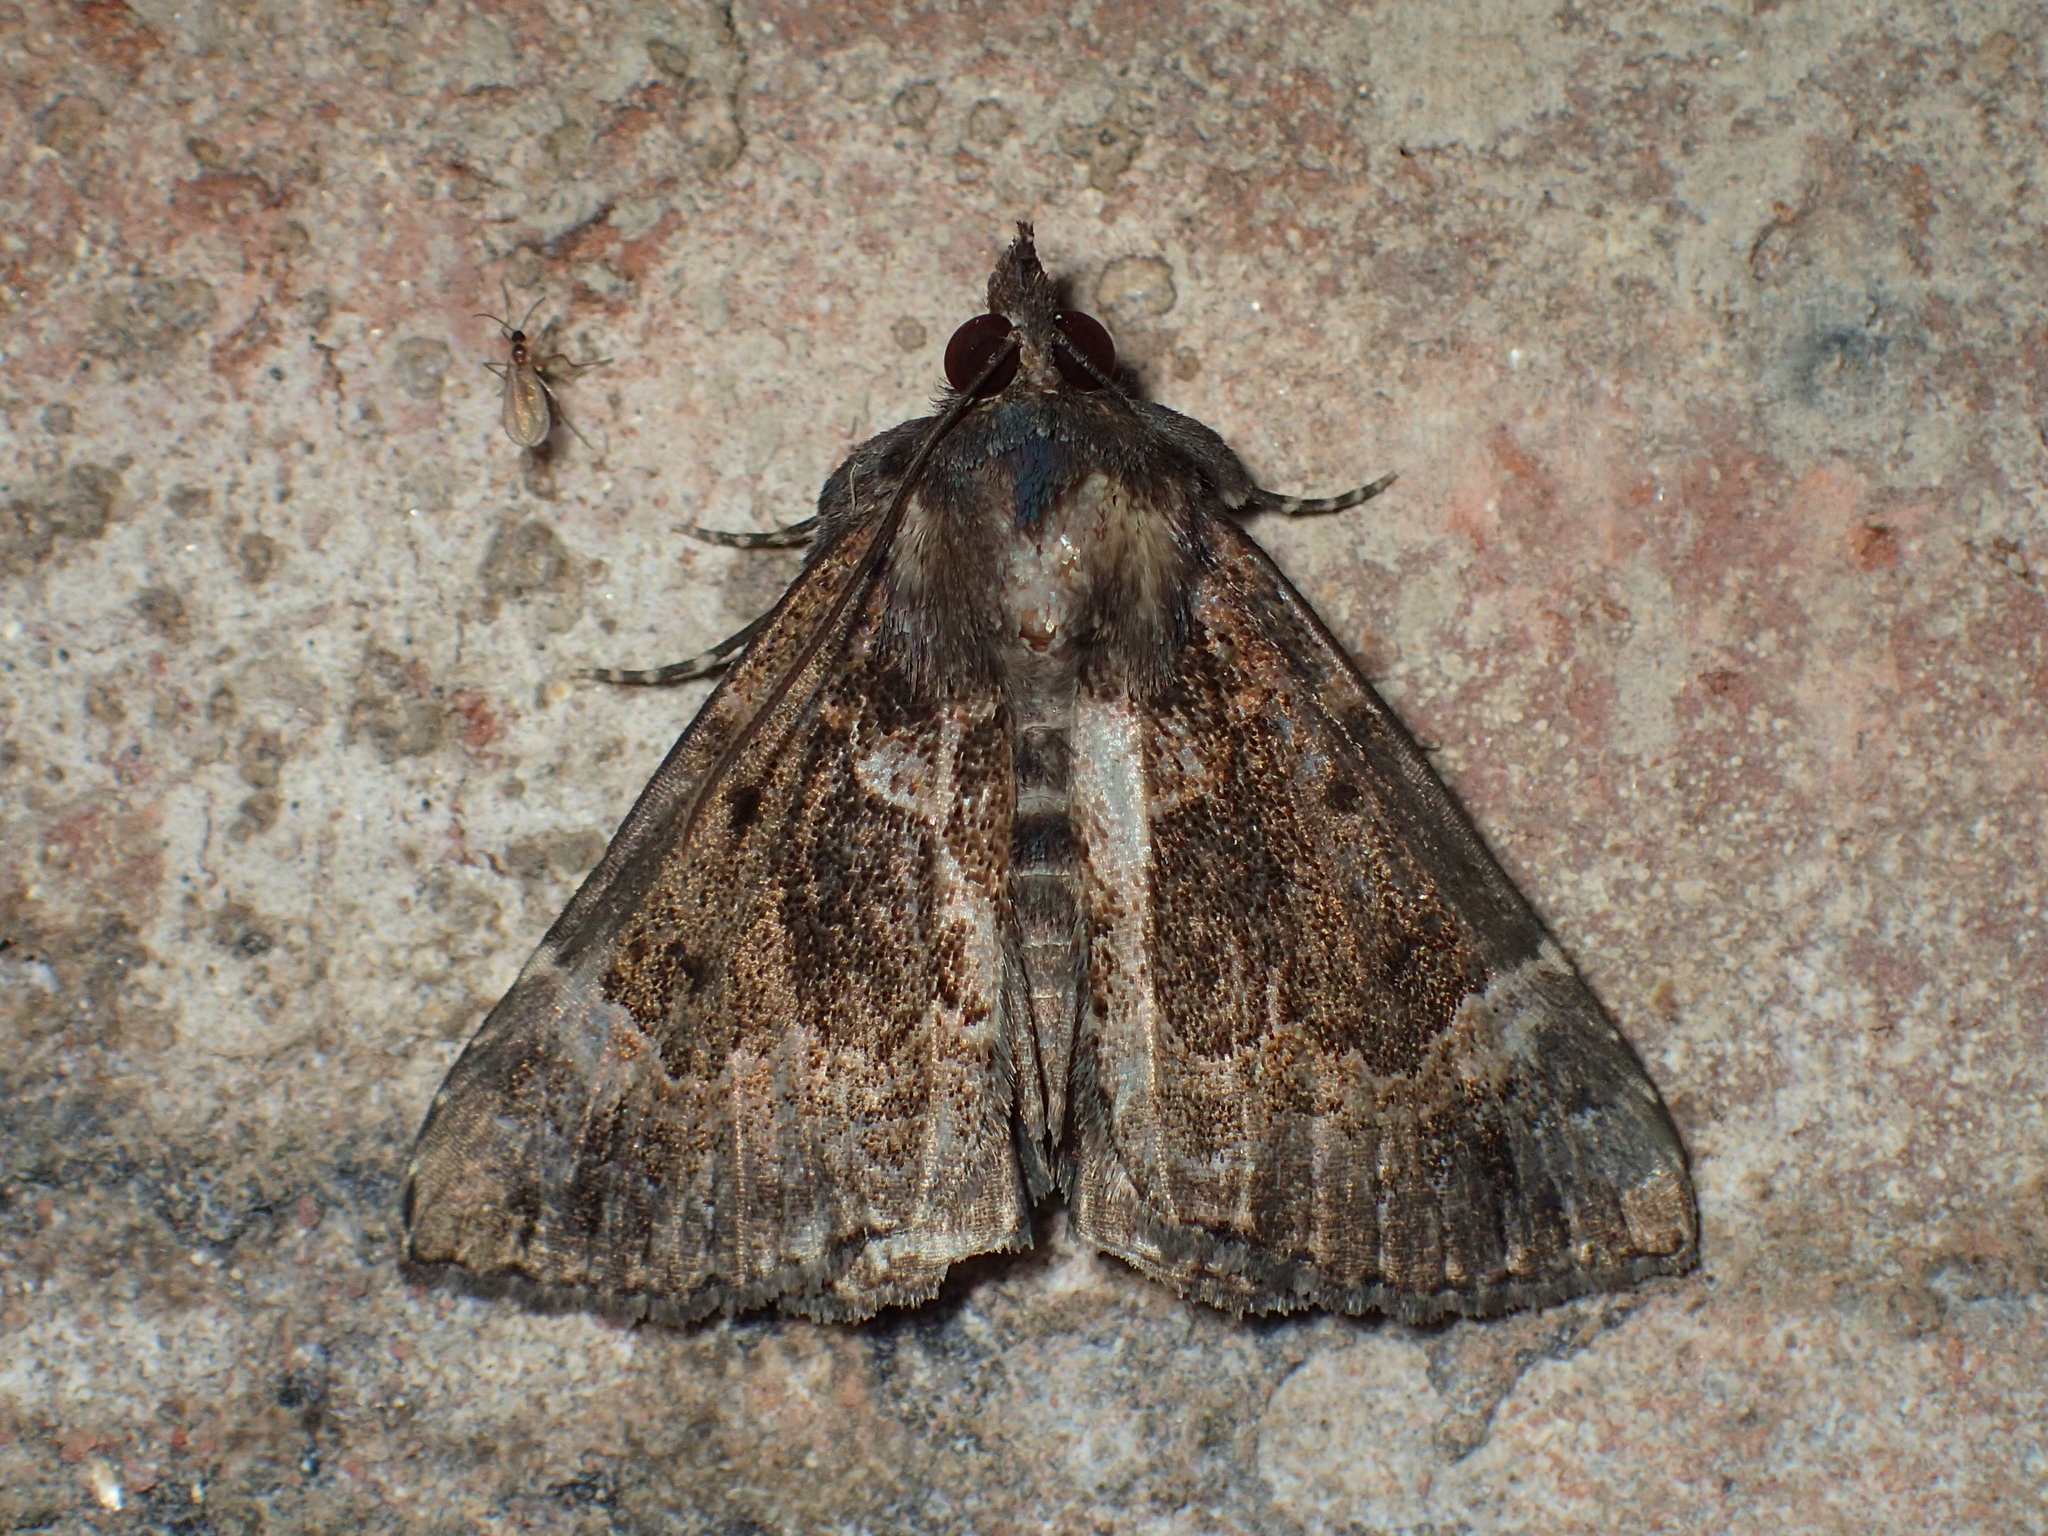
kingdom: Animalia
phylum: Arthropoda
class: Insecta
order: Lepidoptera
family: Erebidae
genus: Hypena
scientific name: Hypena palparia
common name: Mottled bomolocha moth
